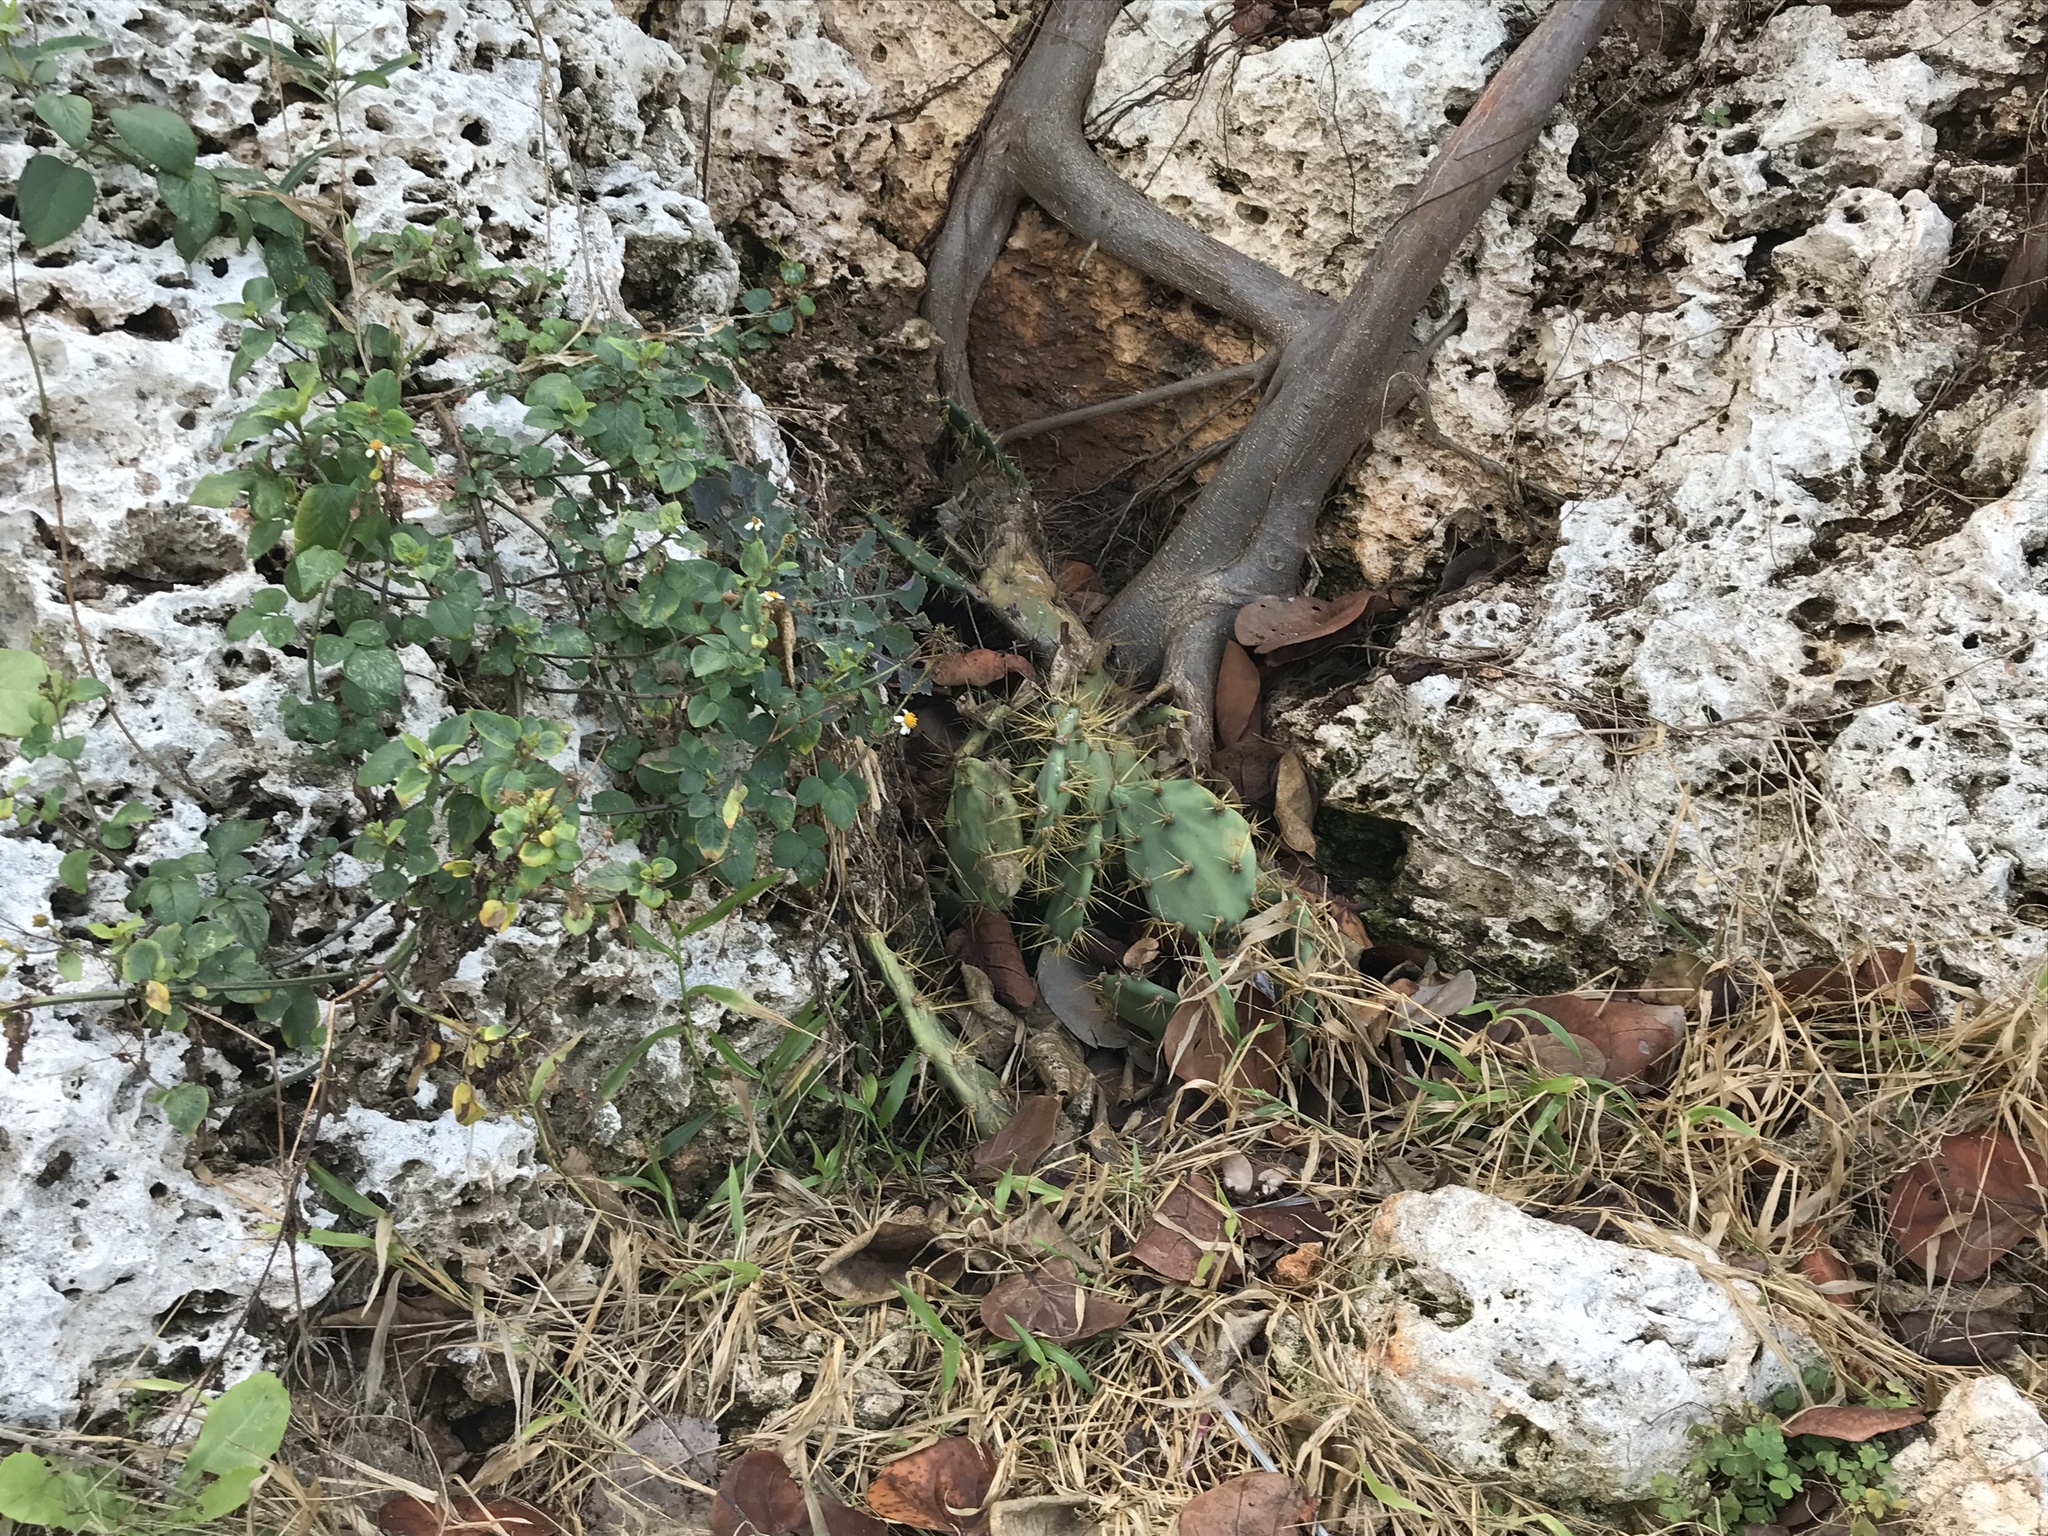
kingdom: Plantae
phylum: Tracheophyta
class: Magnoliopsida
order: Caryophyllales
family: Cactaceae
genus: Opuntia
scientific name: Opuntia stricta
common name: Erect pricklypear
